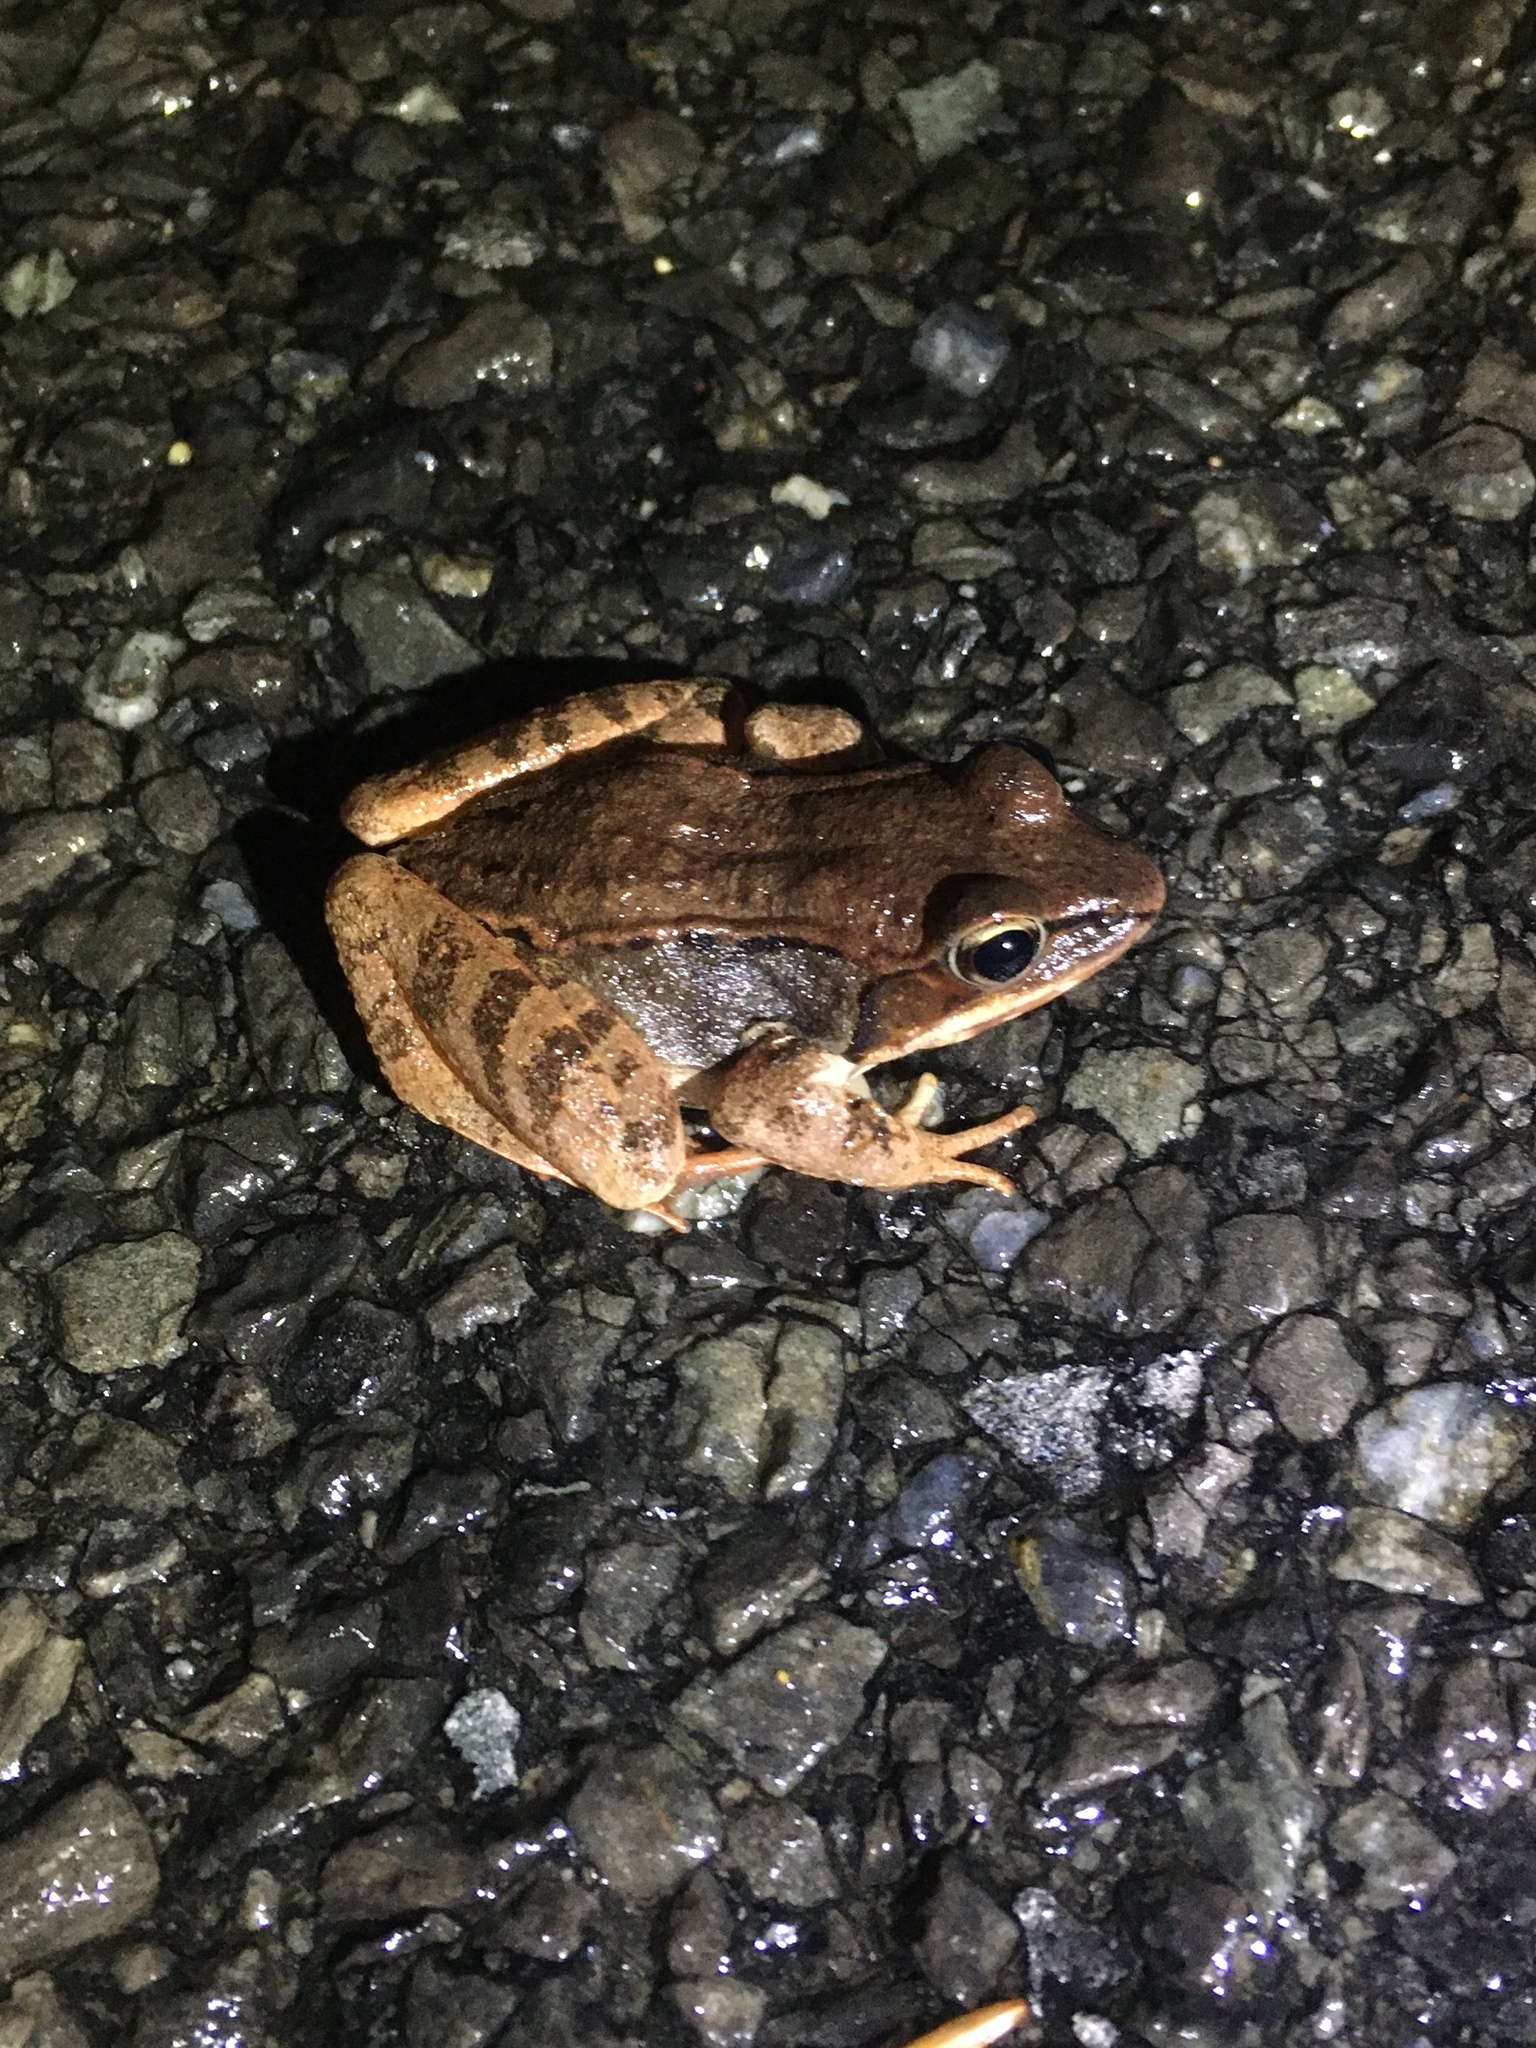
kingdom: Animalia
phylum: Chordata
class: Amphibia
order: Anura
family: Ranidae
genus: Lithobates
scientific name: Lithobates sylvaticus
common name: Wood frog
